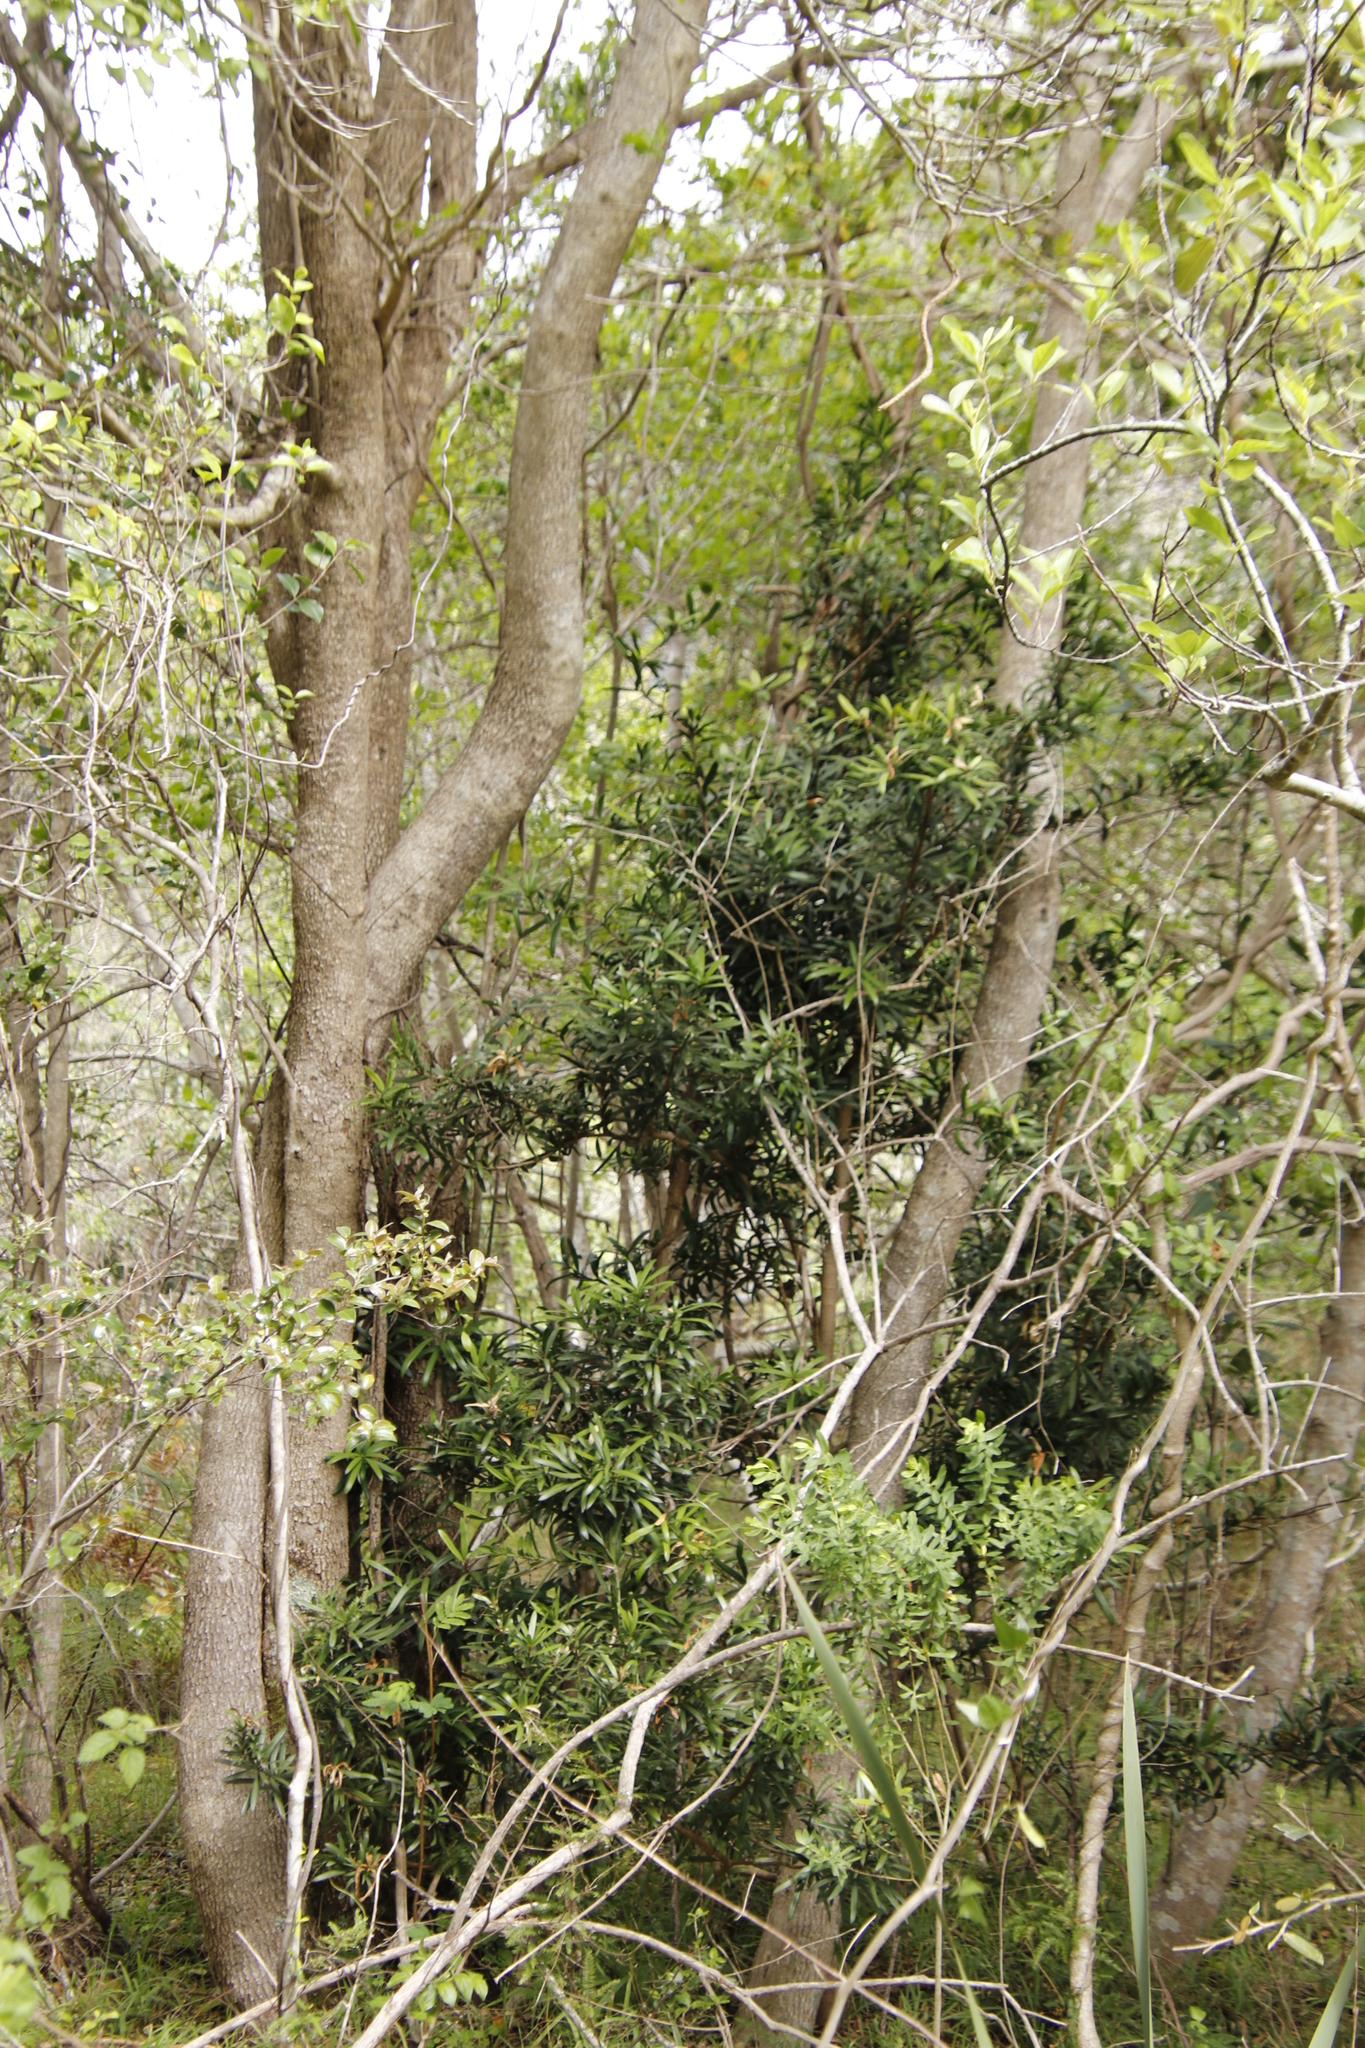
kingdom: Plantae
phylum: Tracheophyta
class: Pinopsida
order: Pinales
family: Podocarpaceae
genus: Podocarpus
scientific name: Podocarpus latifolius
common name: True yellowwood
